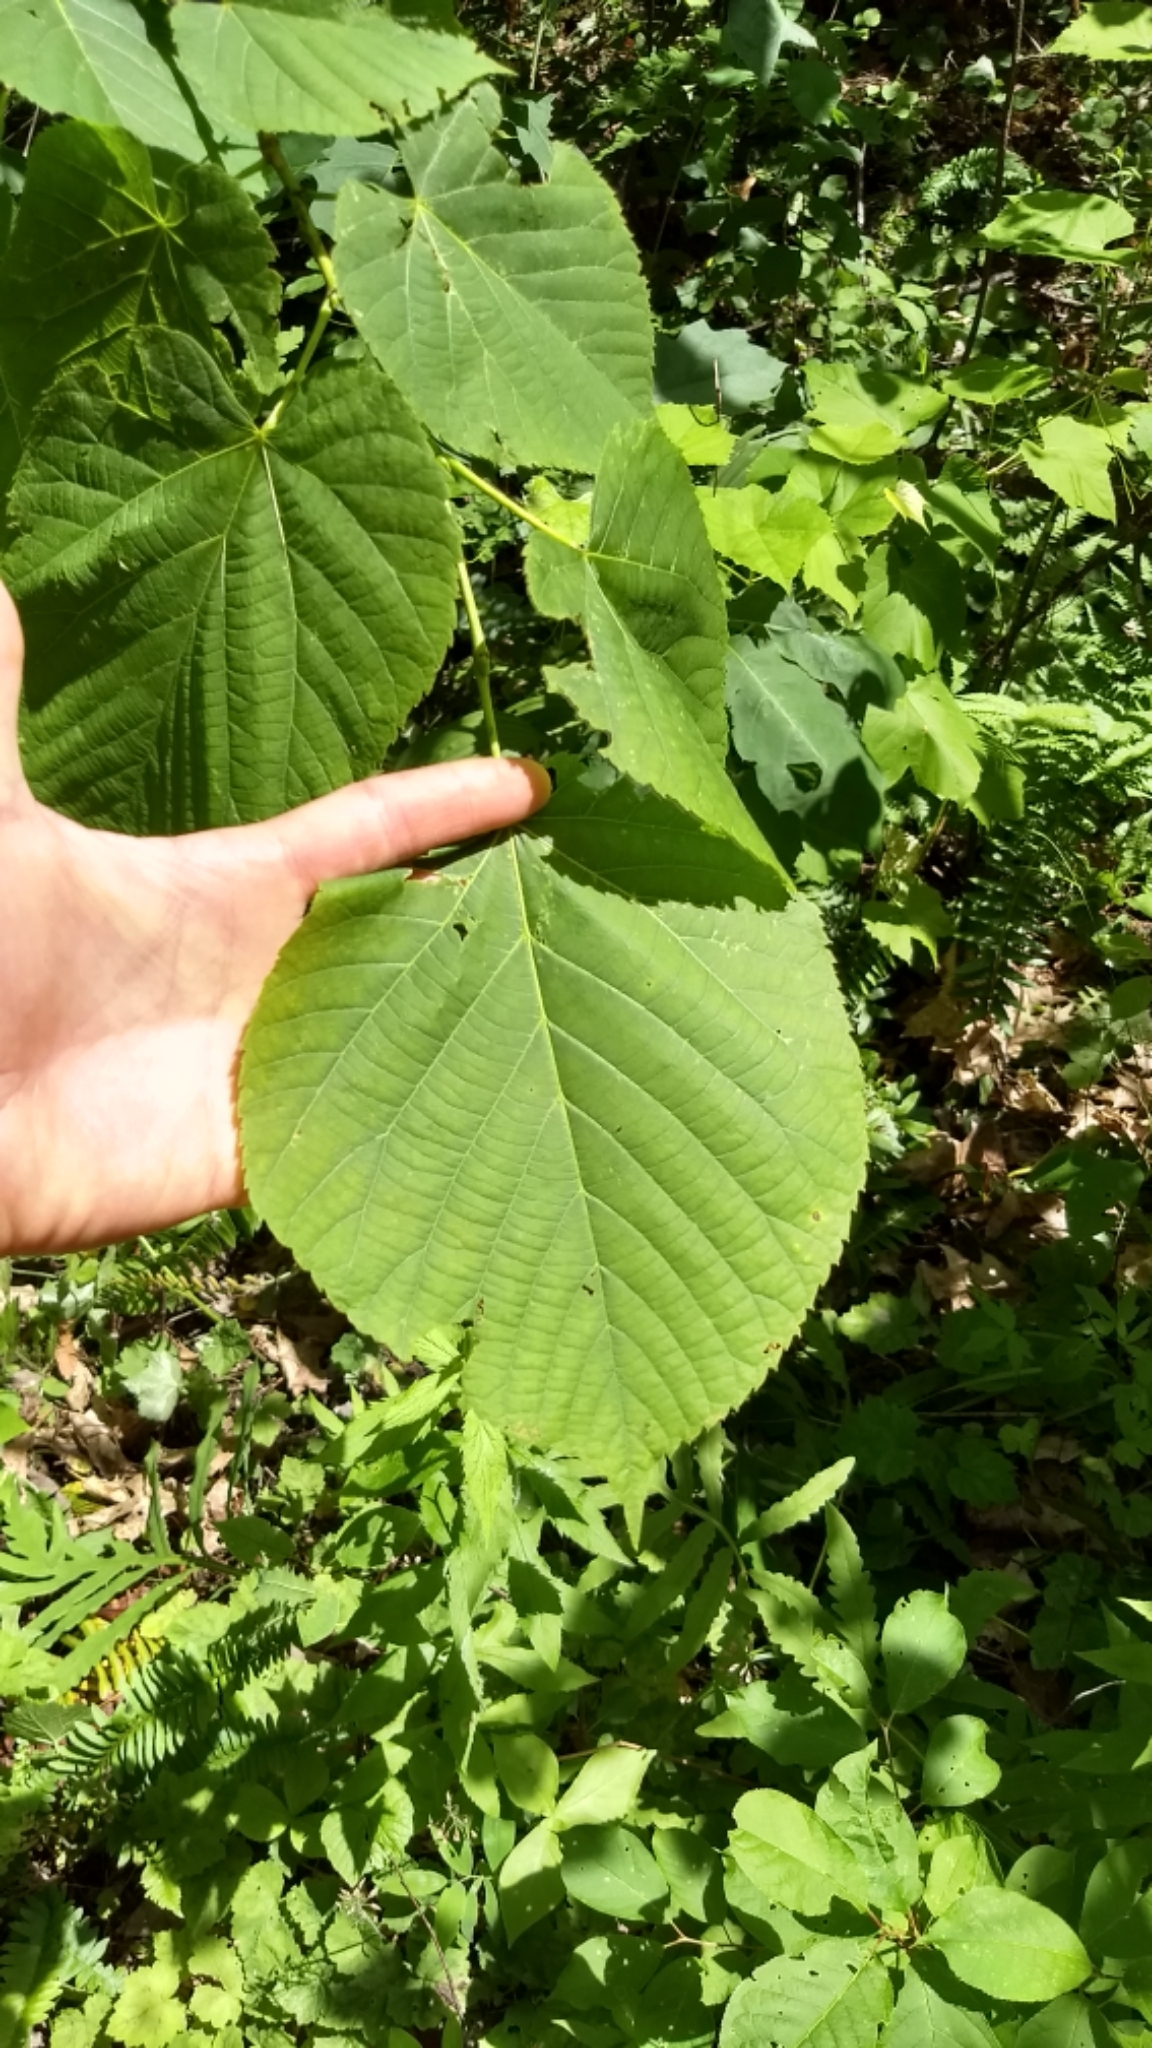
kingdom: Plantae
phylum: Tracheophyta
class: Magnoliopsida
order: Malvales
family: Malvaceae
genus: Tilia
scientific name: Tilia americana
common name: Basswood
